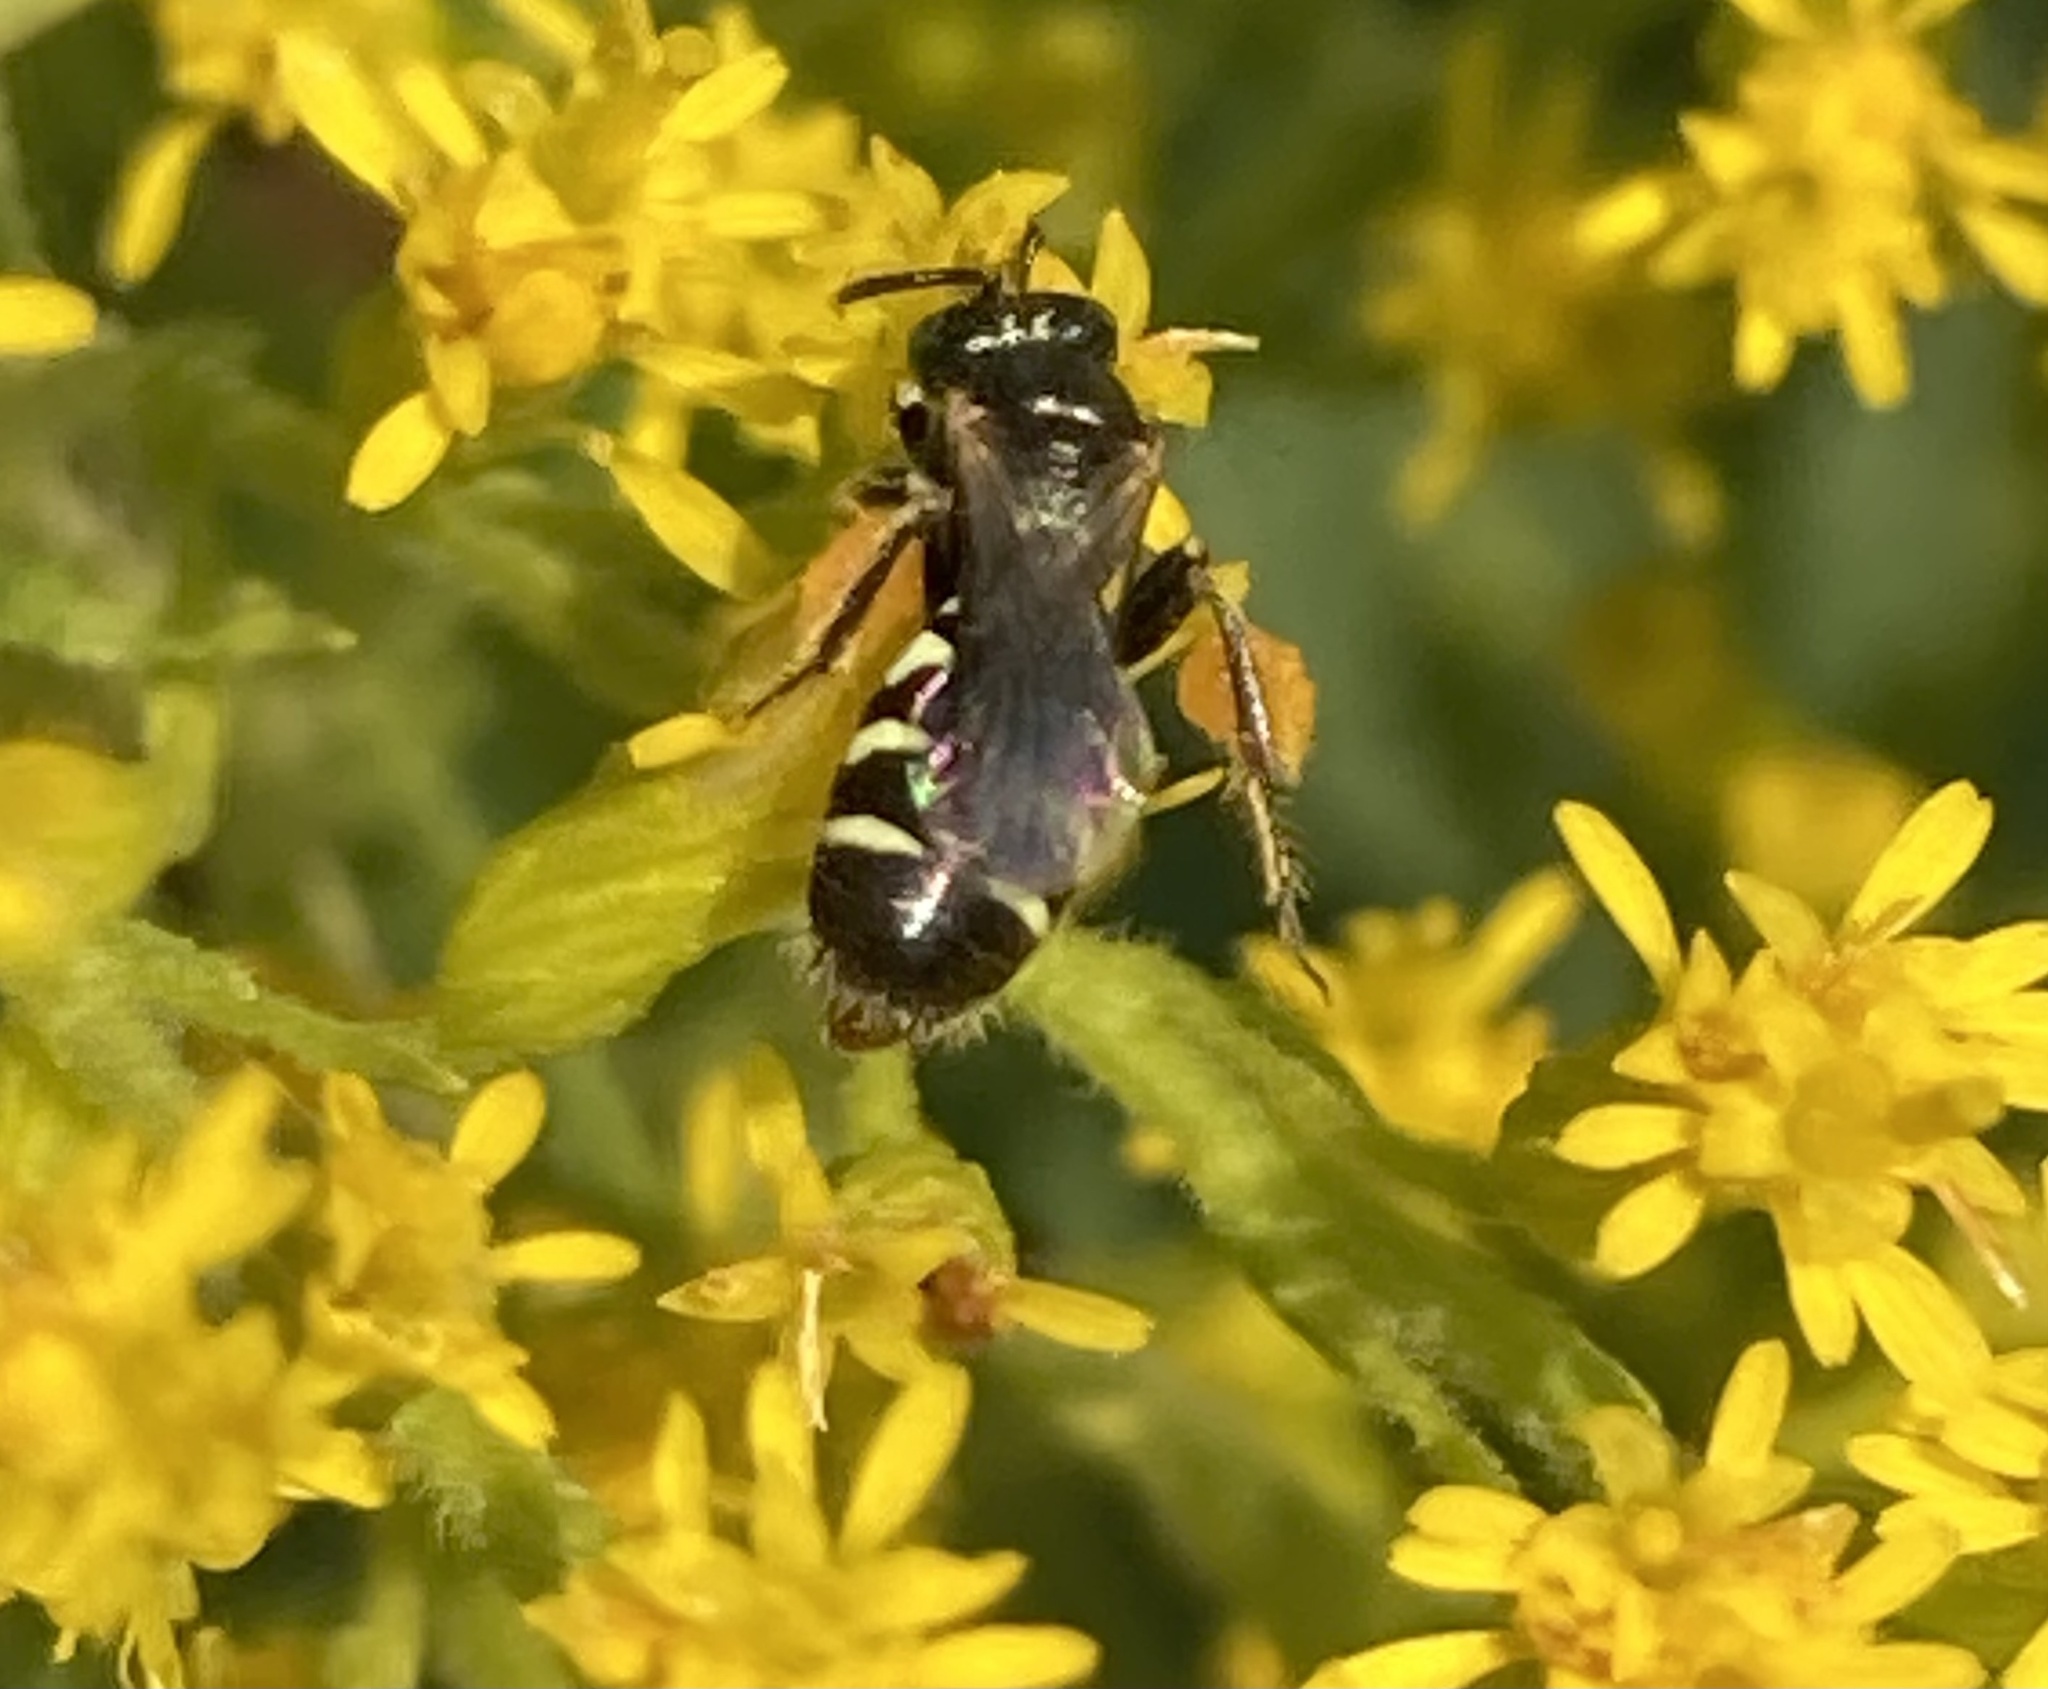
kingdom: Animalia
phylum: Arthropoda
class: Insecta
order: Hymenoptera
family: Andrenidae
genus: Perdita
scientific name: Perdita octomaculata
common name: Eight-spotted miner bee
